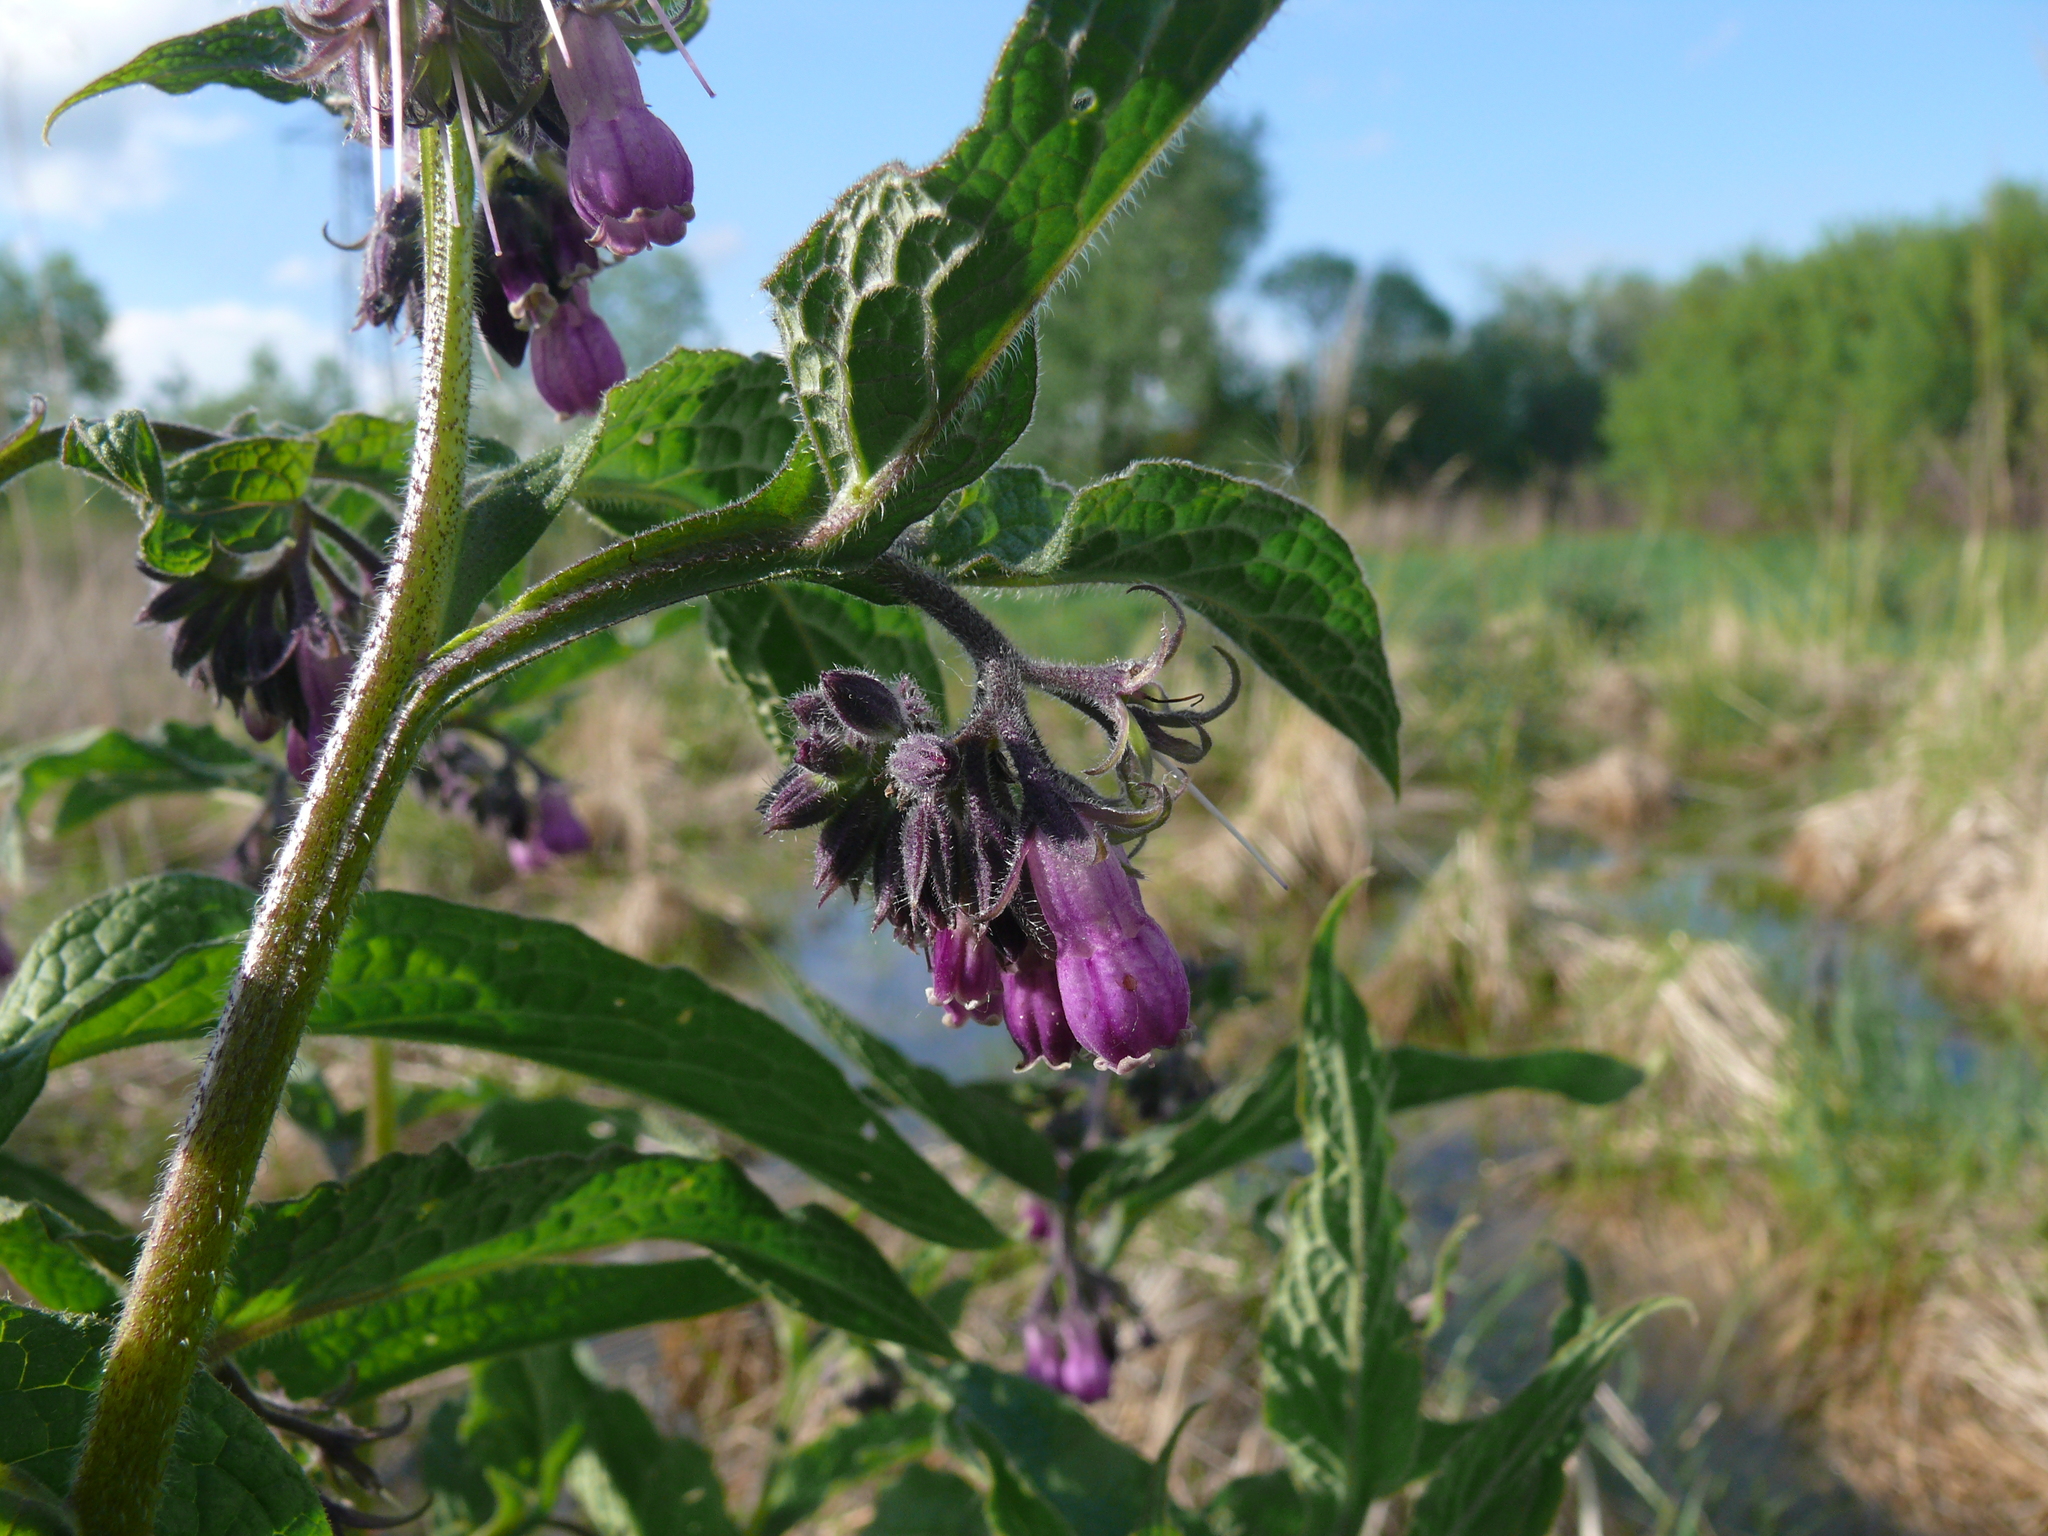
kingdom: Plantae
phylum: Tracheophyta
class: Magnoliopsida
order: Boraginales
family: Boraginaceae
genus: Symphytum
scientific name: Symphytum officinale
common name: Common comfrey
